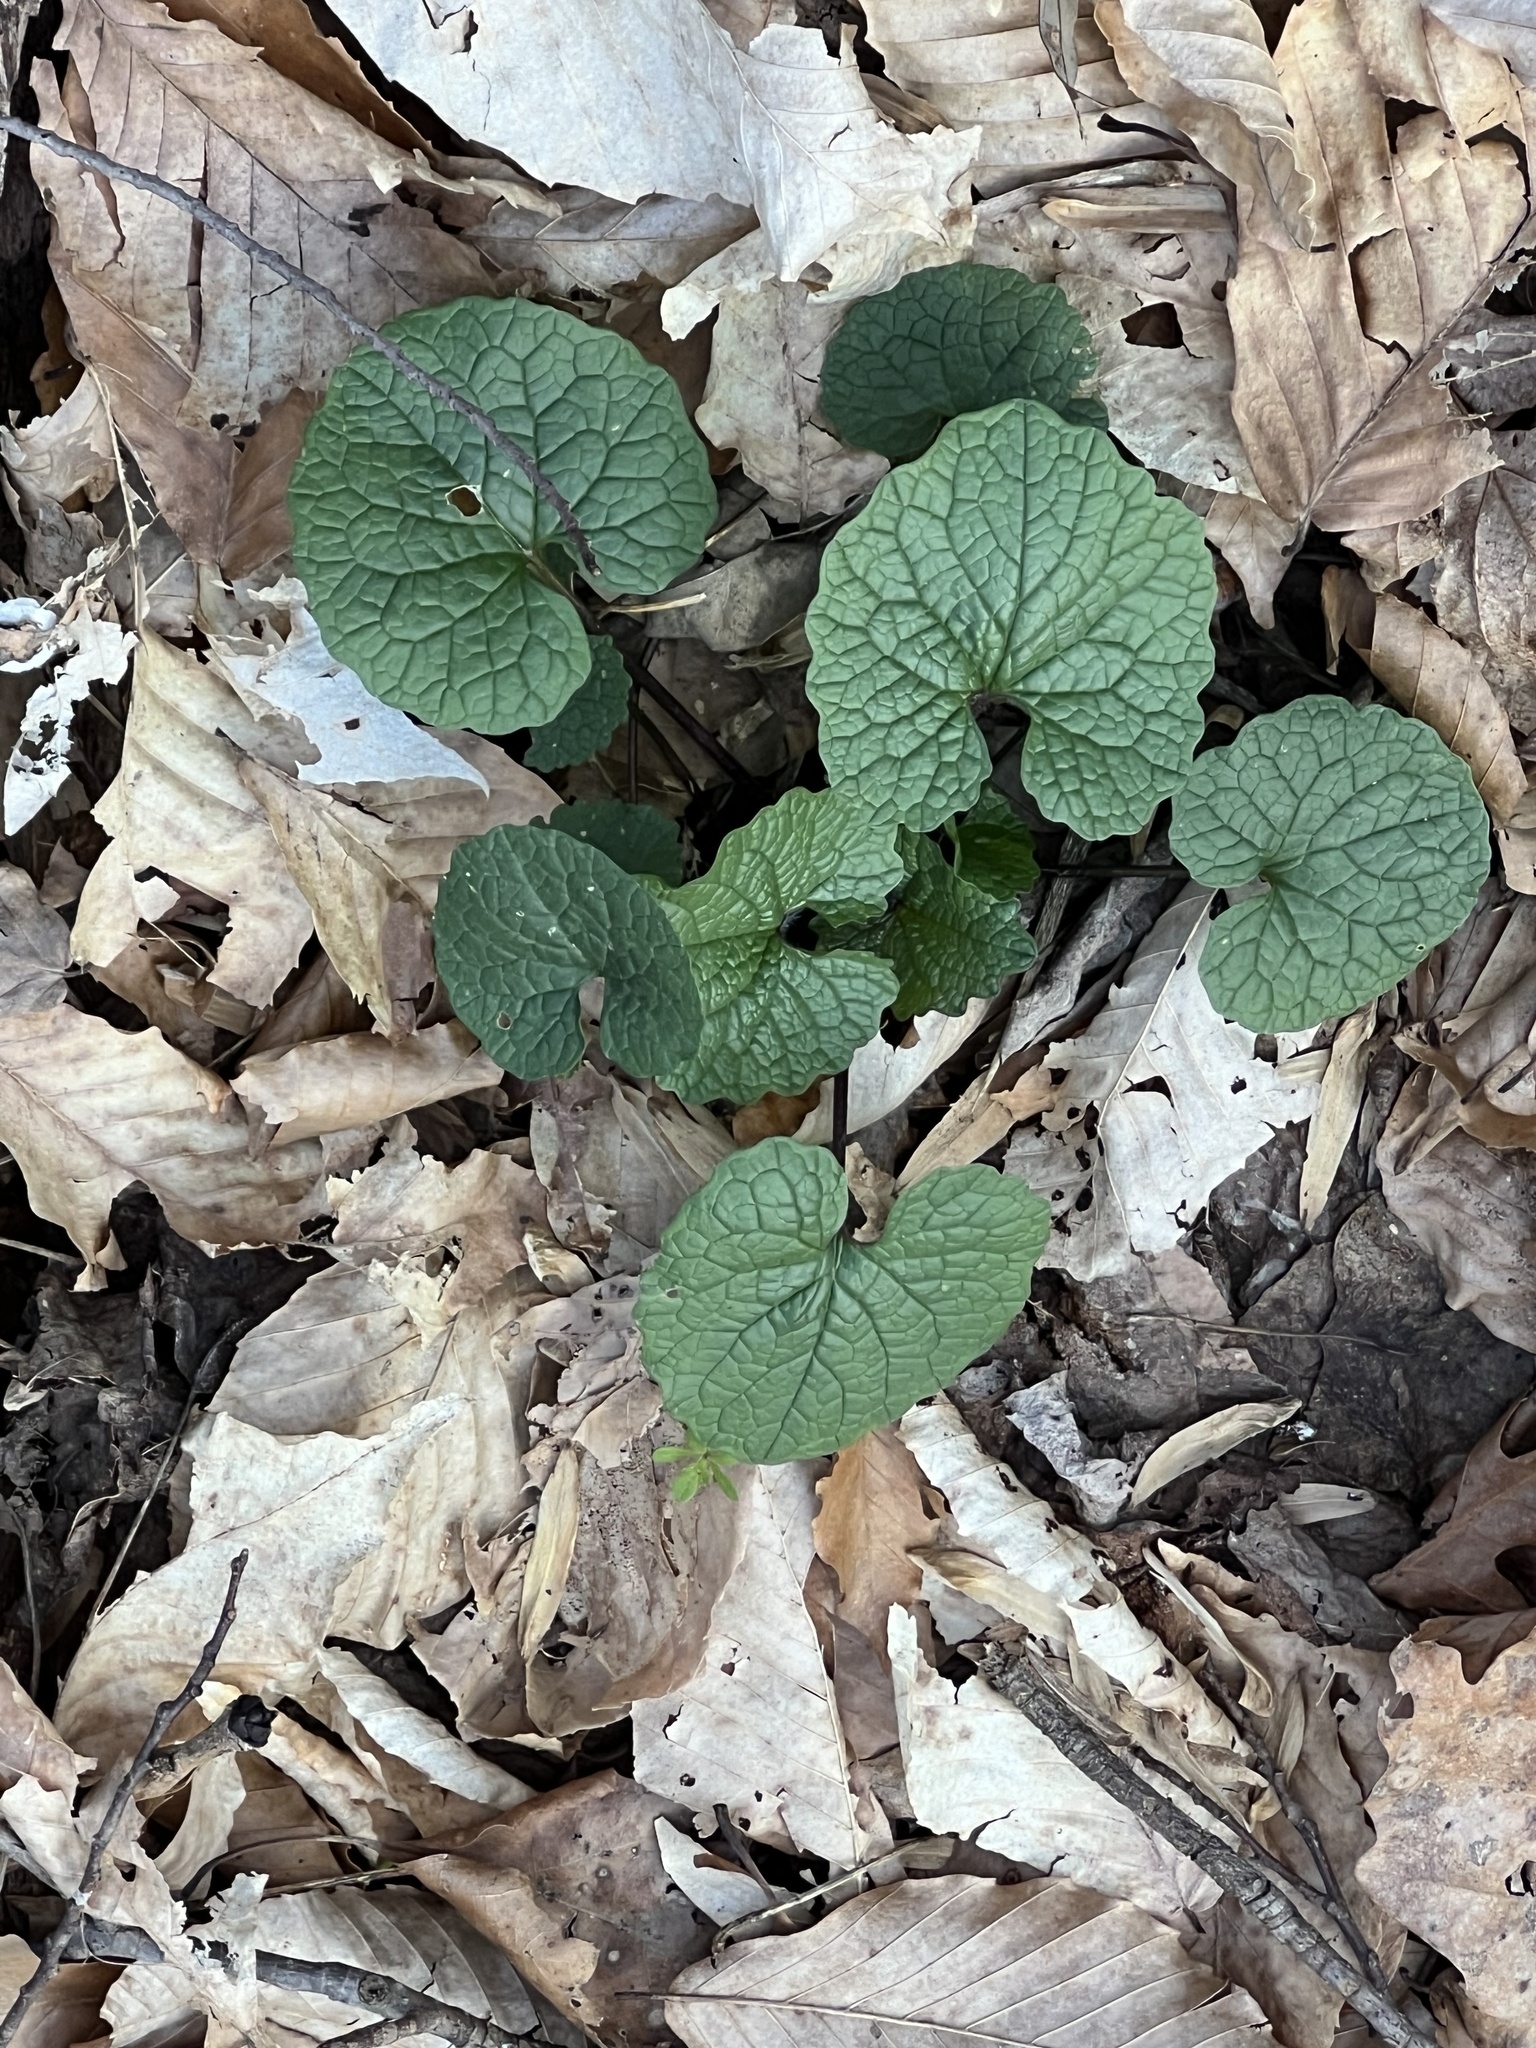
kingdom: Plantae
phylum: Tracheophyta
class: Magnoliopsida
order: Brassicales
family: Brassicaceae
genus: Alliaria
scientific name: Alliaria petiolata
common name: Garlic mustard
